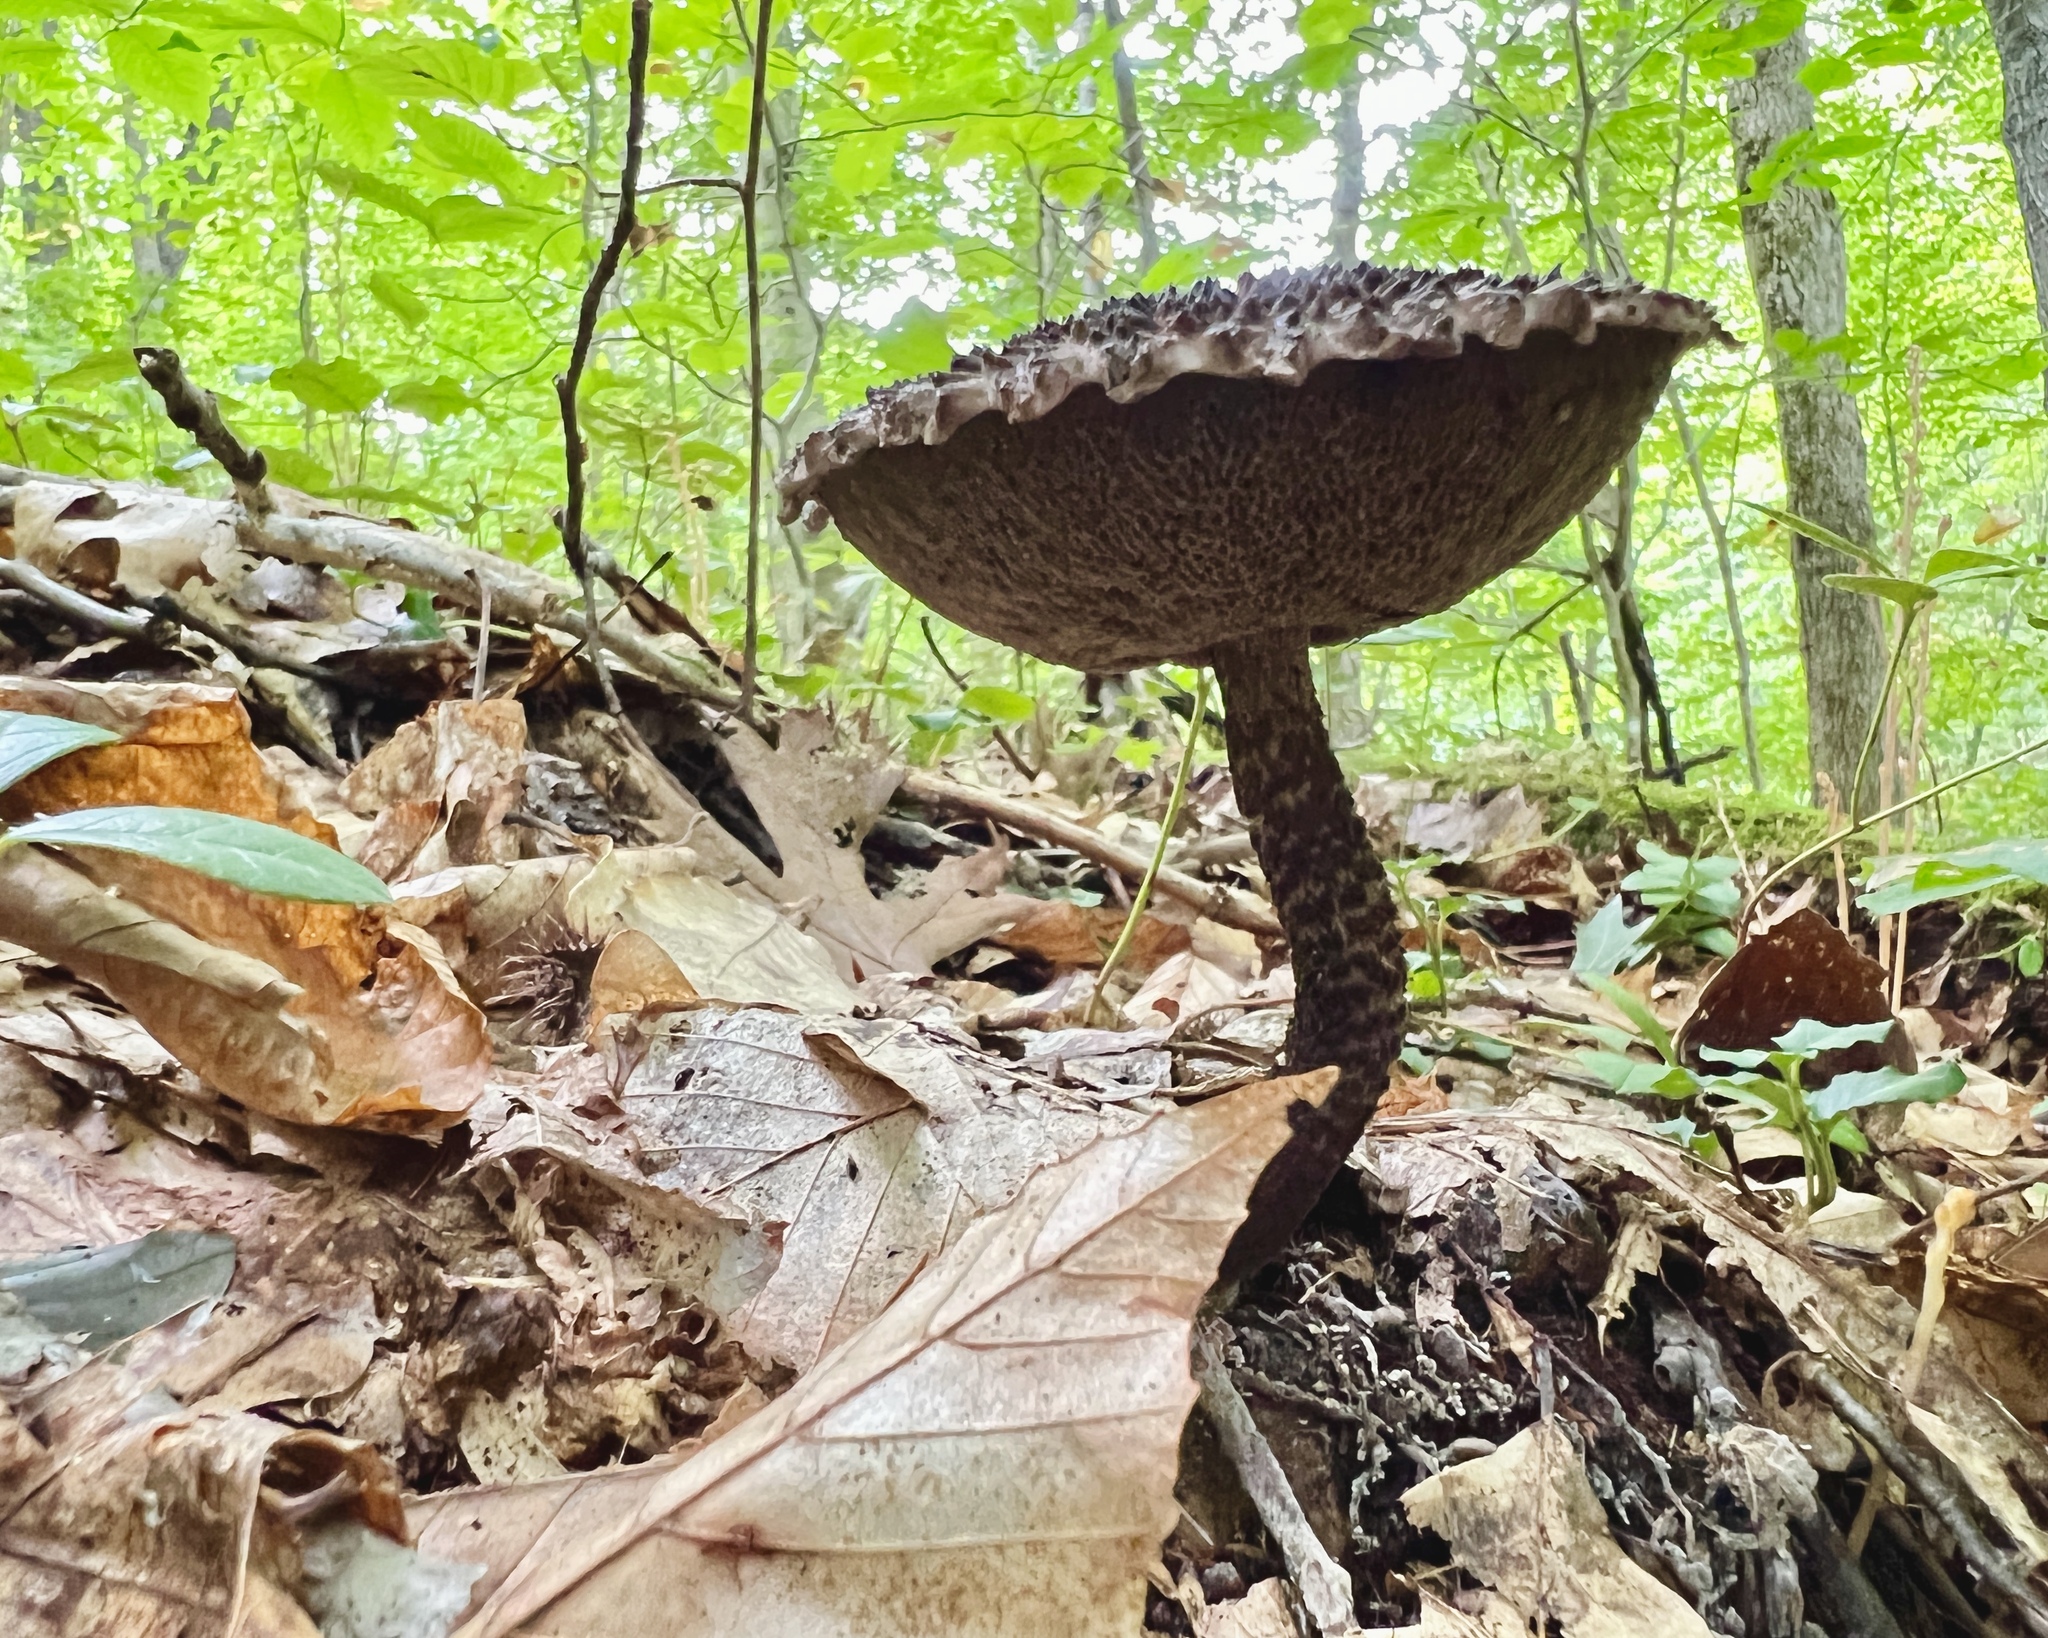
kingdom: Fungi
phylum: Basidiomycota
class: Agaricomycetes
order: Boletales
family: Boletaceae
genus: Strobilomyces
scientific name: Strobilomyces strobilaceus
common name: Old man of the woods
